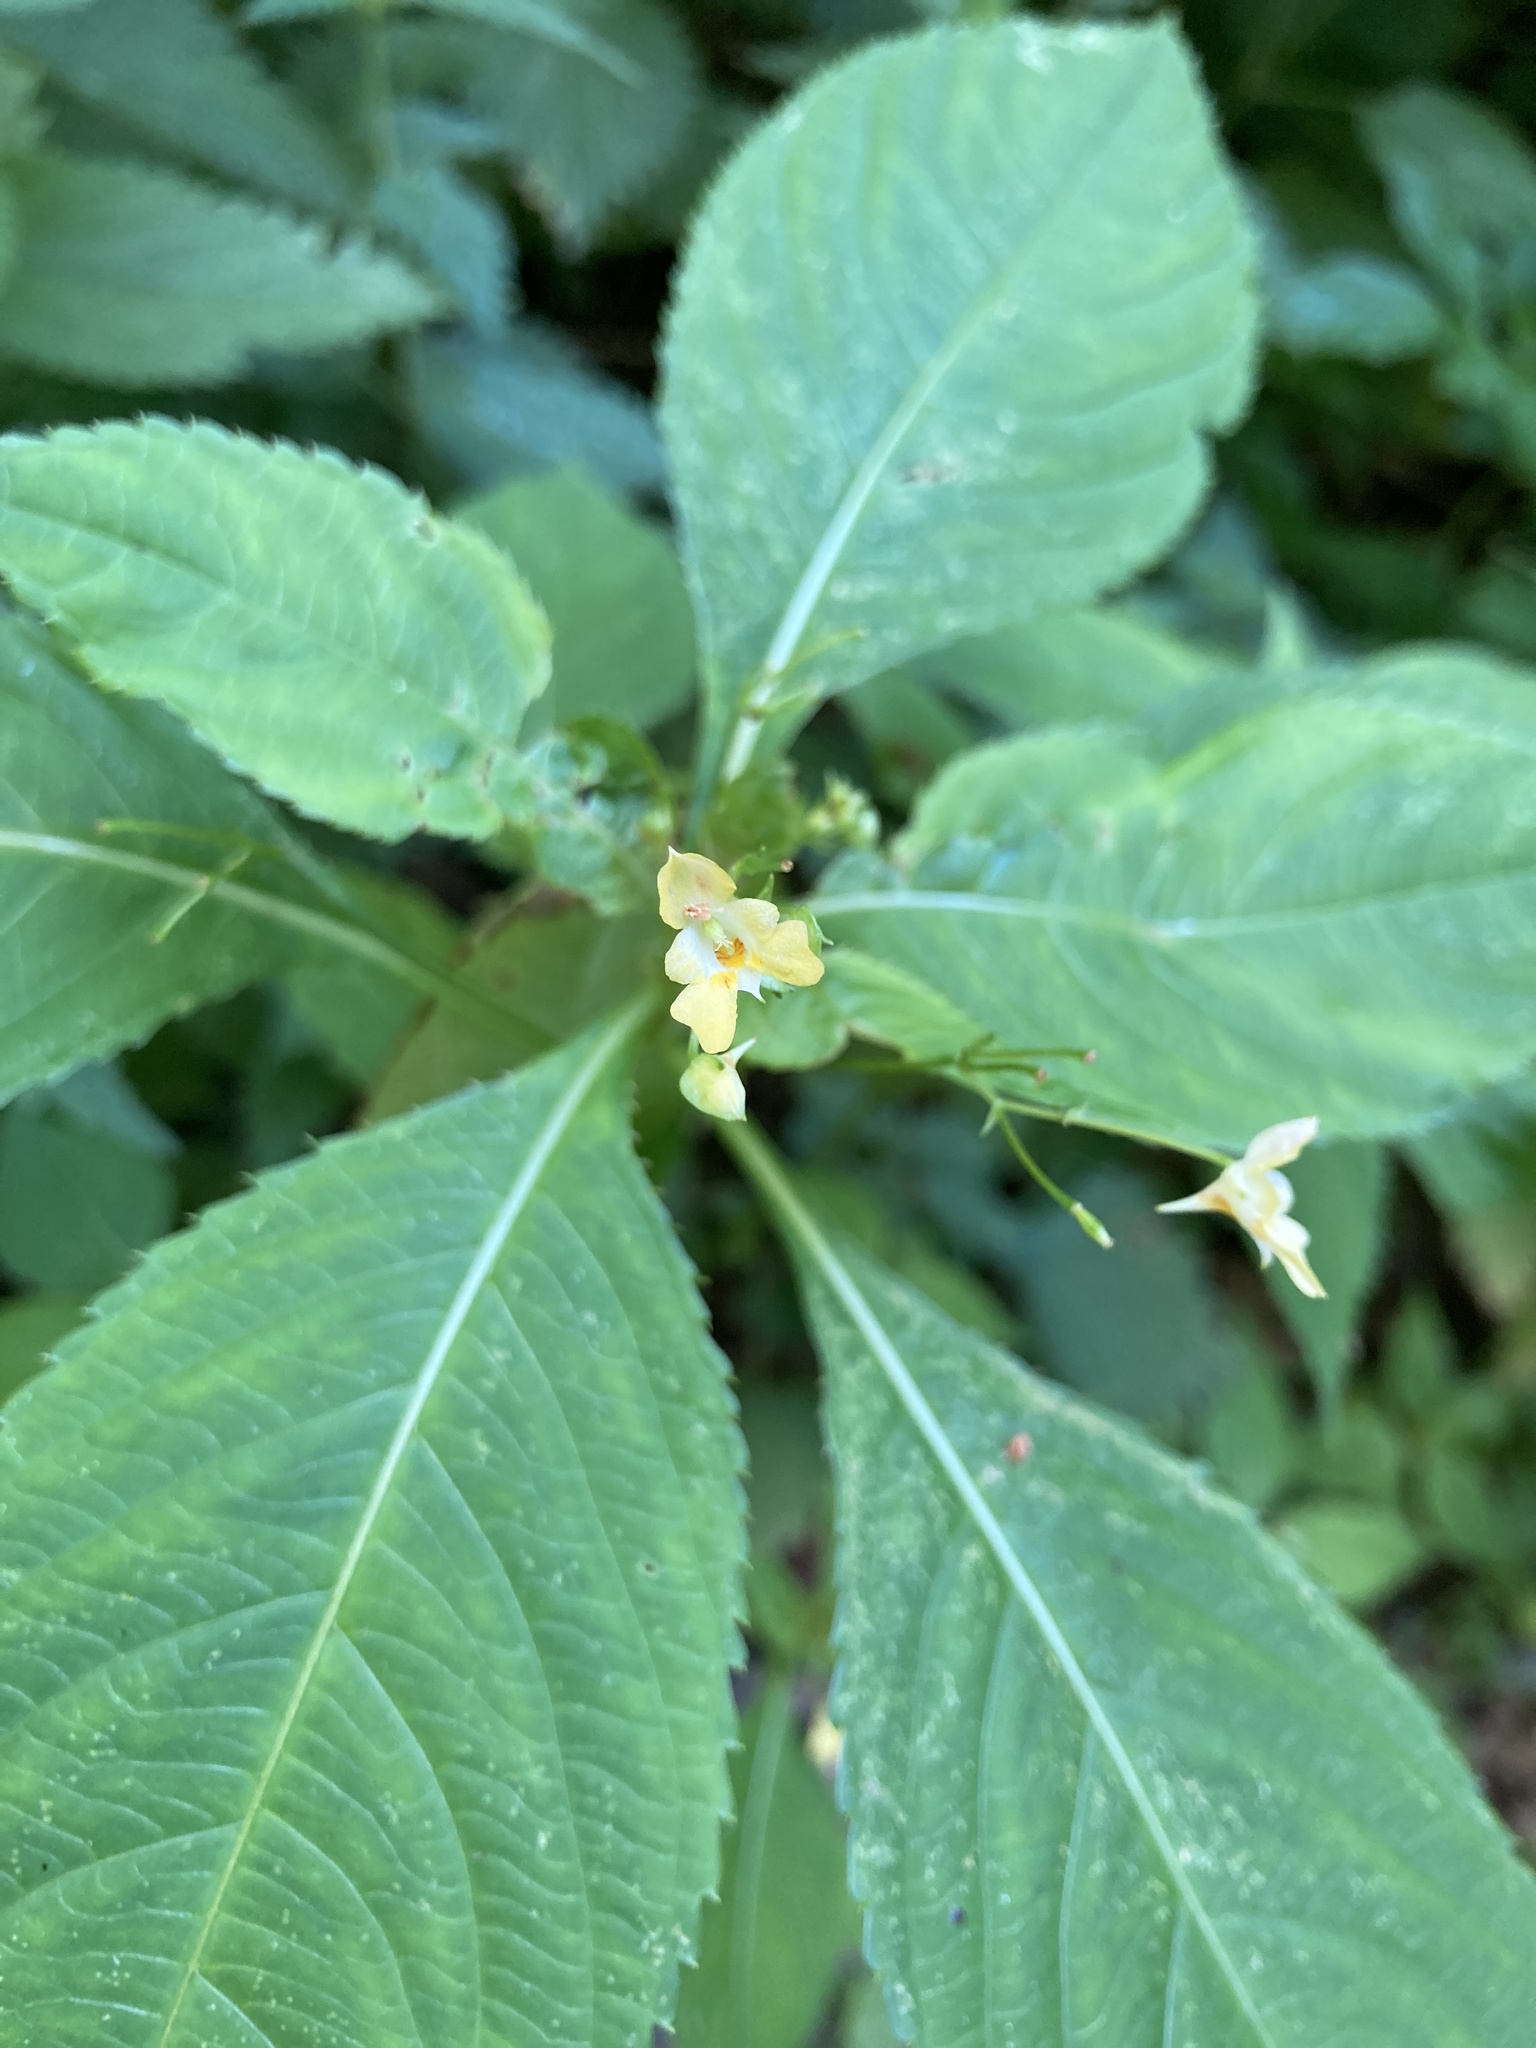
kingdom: Plantae
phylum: Tracheophyta
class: Magnoliopsida
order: Ericales
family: Balsaminaceae
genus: Impatiens
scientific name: Impatiens parviflora
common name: Small balsam
